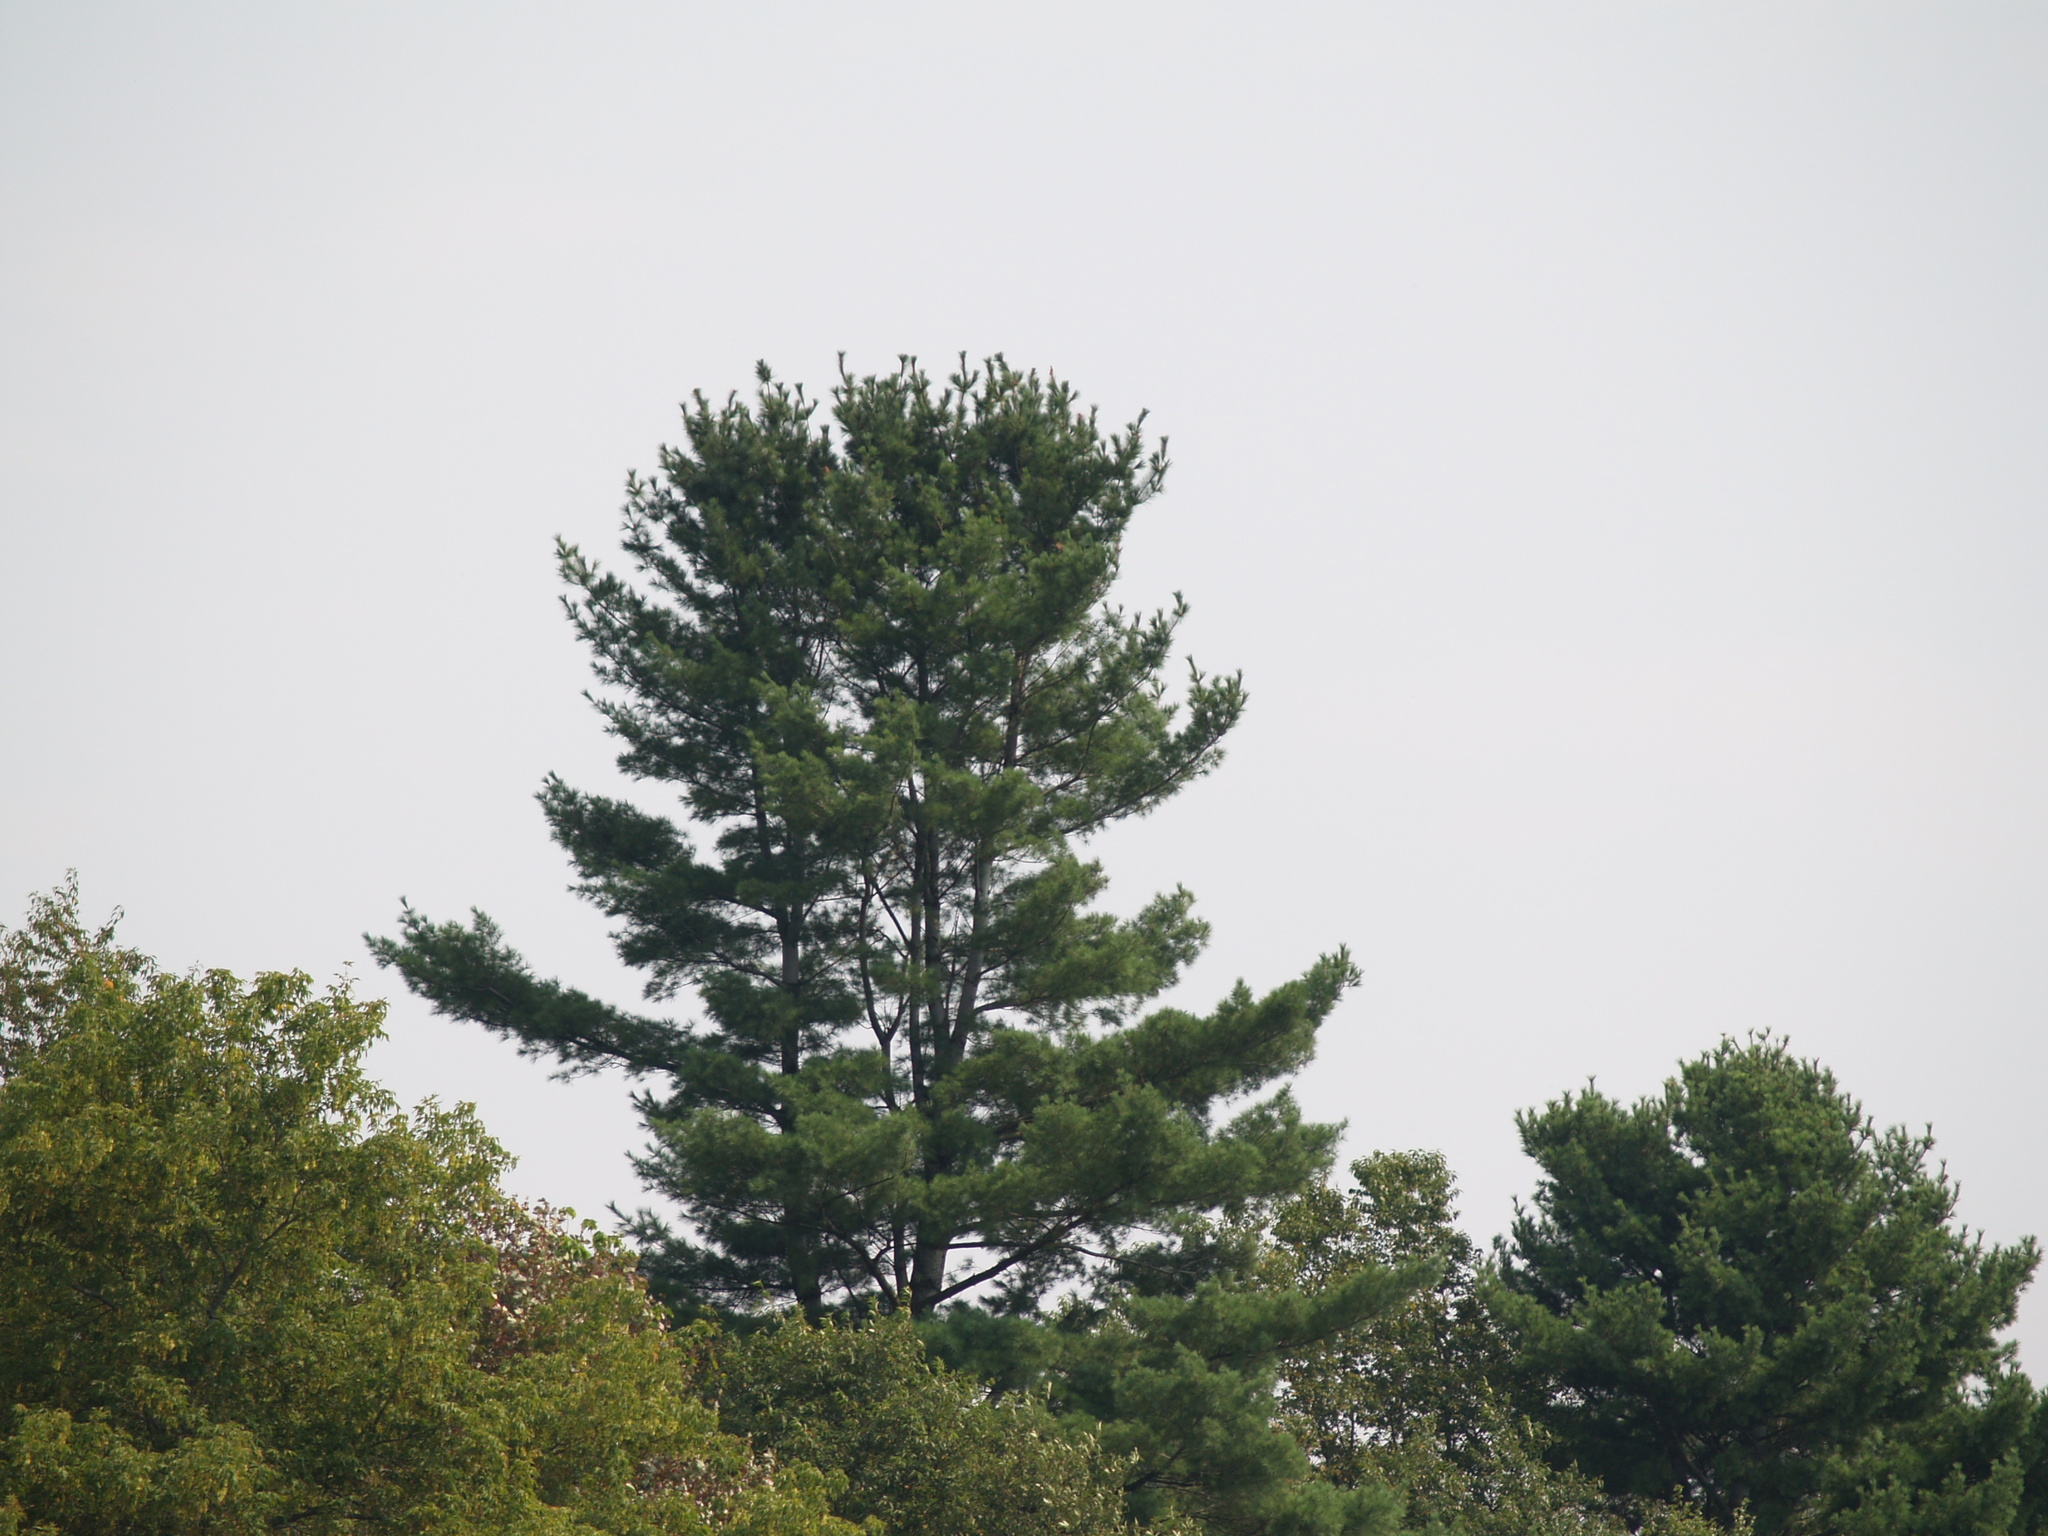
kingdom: Plantae
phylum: Tracheophyta
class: Pinopsida
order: Pinales
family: Pinaceae
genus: Pinus
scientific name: Pinus strobus
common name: Weymouth pine
